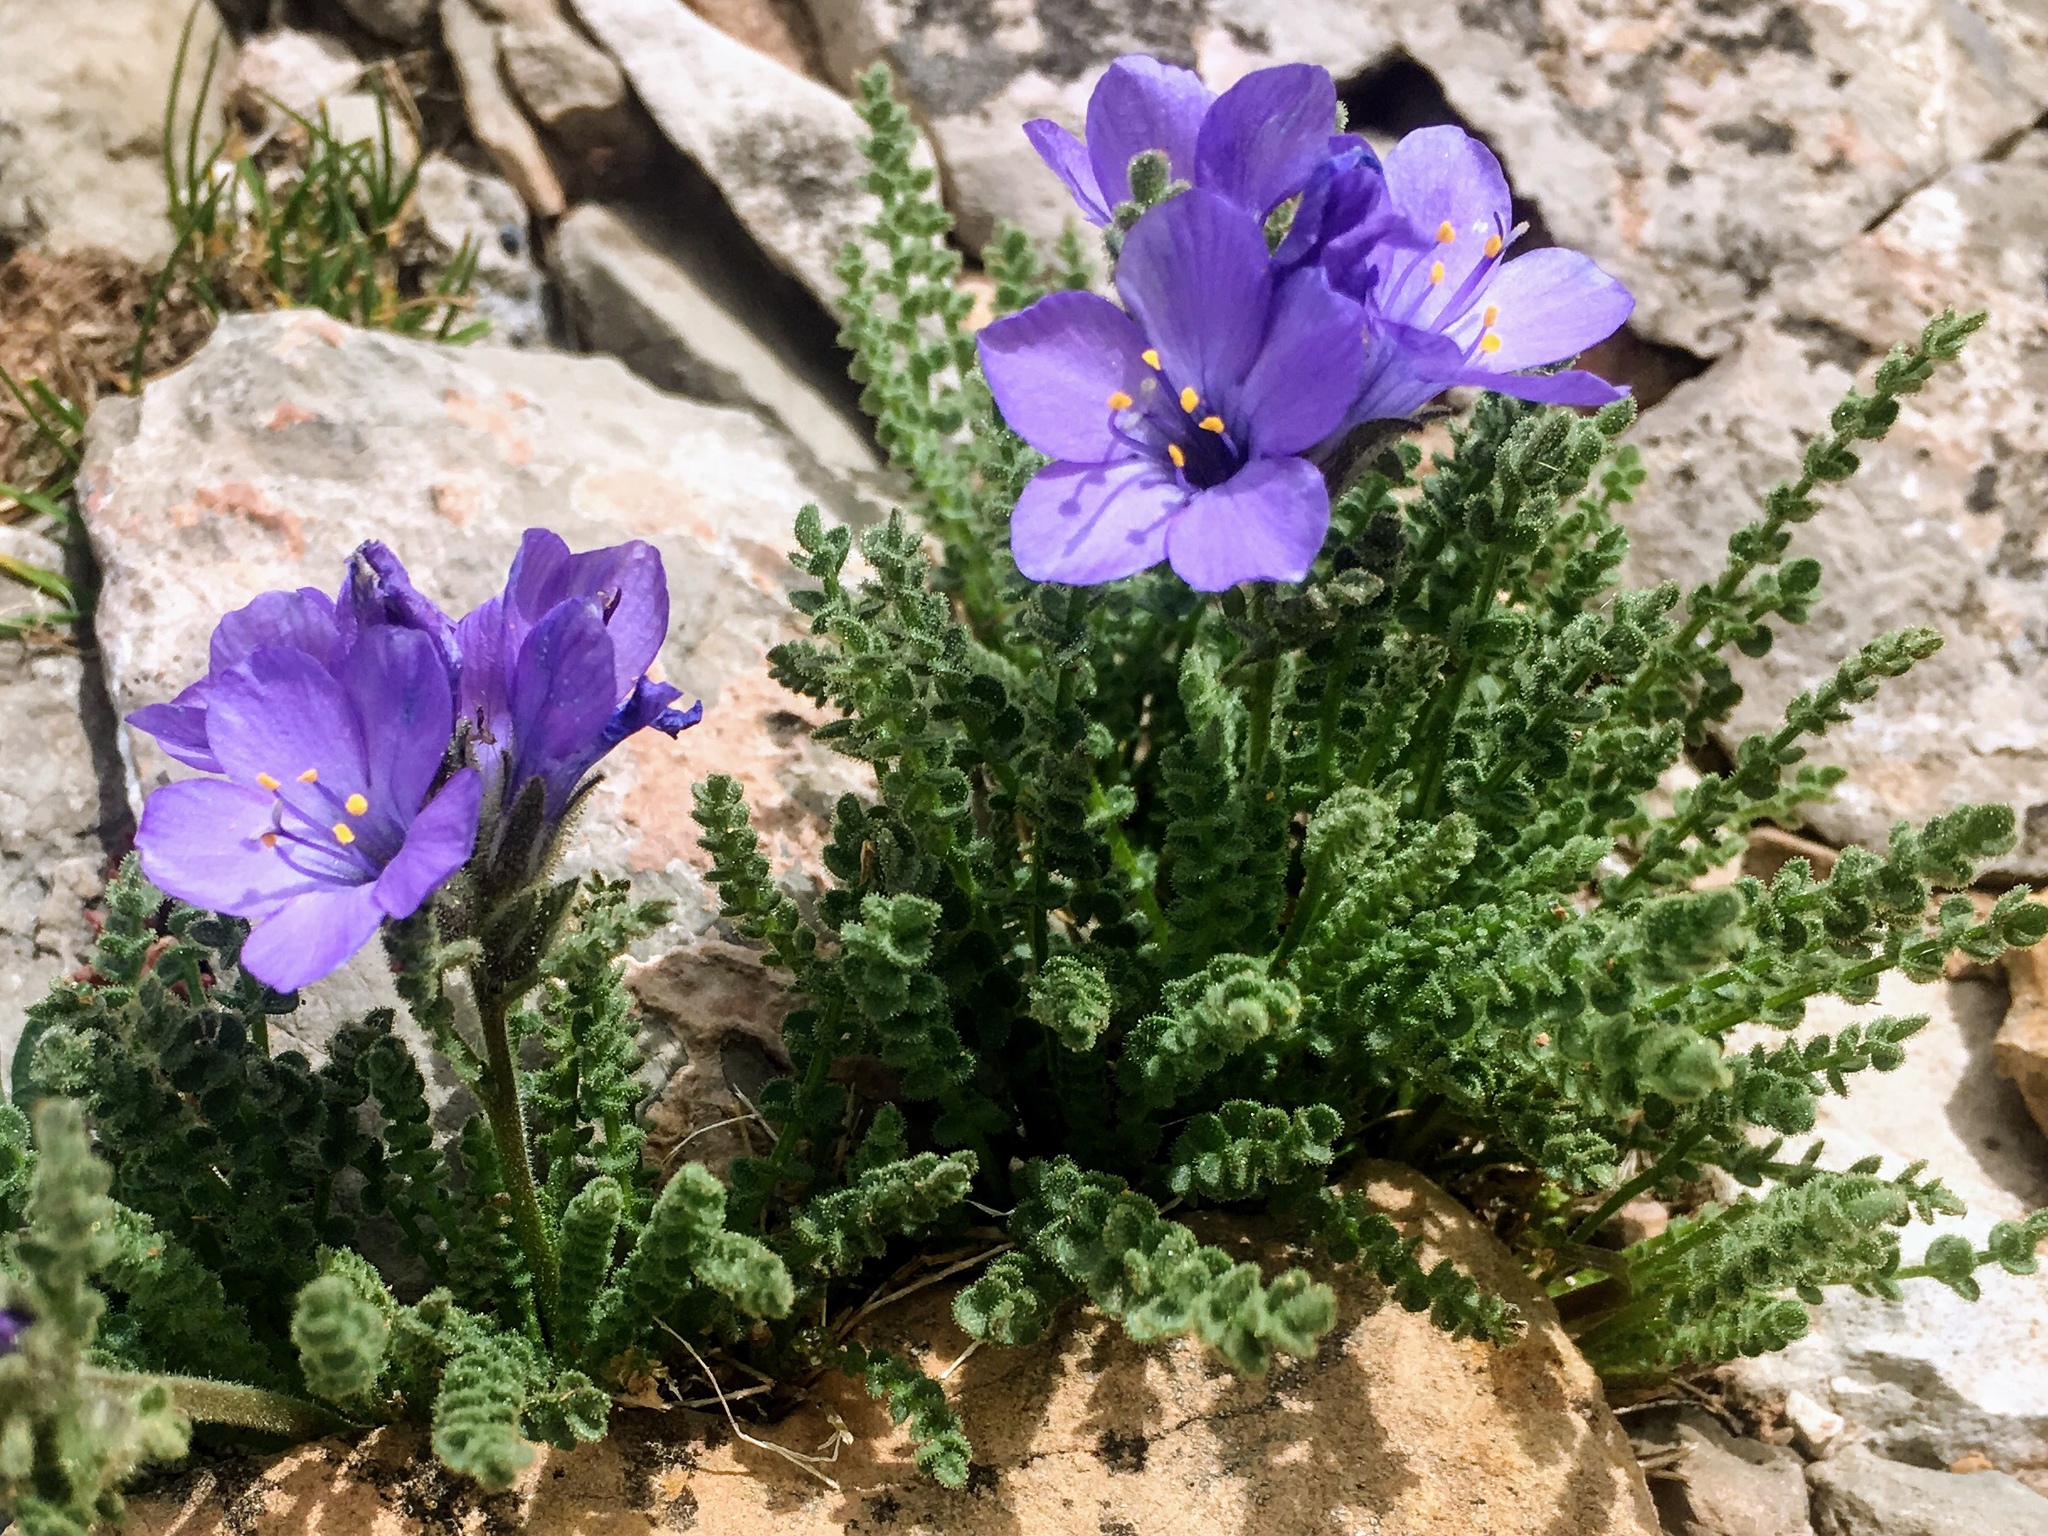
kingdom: Plantae
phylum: Tracheophyta
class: Magnoliopsida
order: Ericales
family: Polemoniaceae
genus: Polemonium
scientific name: Polemonium viscosum
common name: Skunk jacob's-ladder
